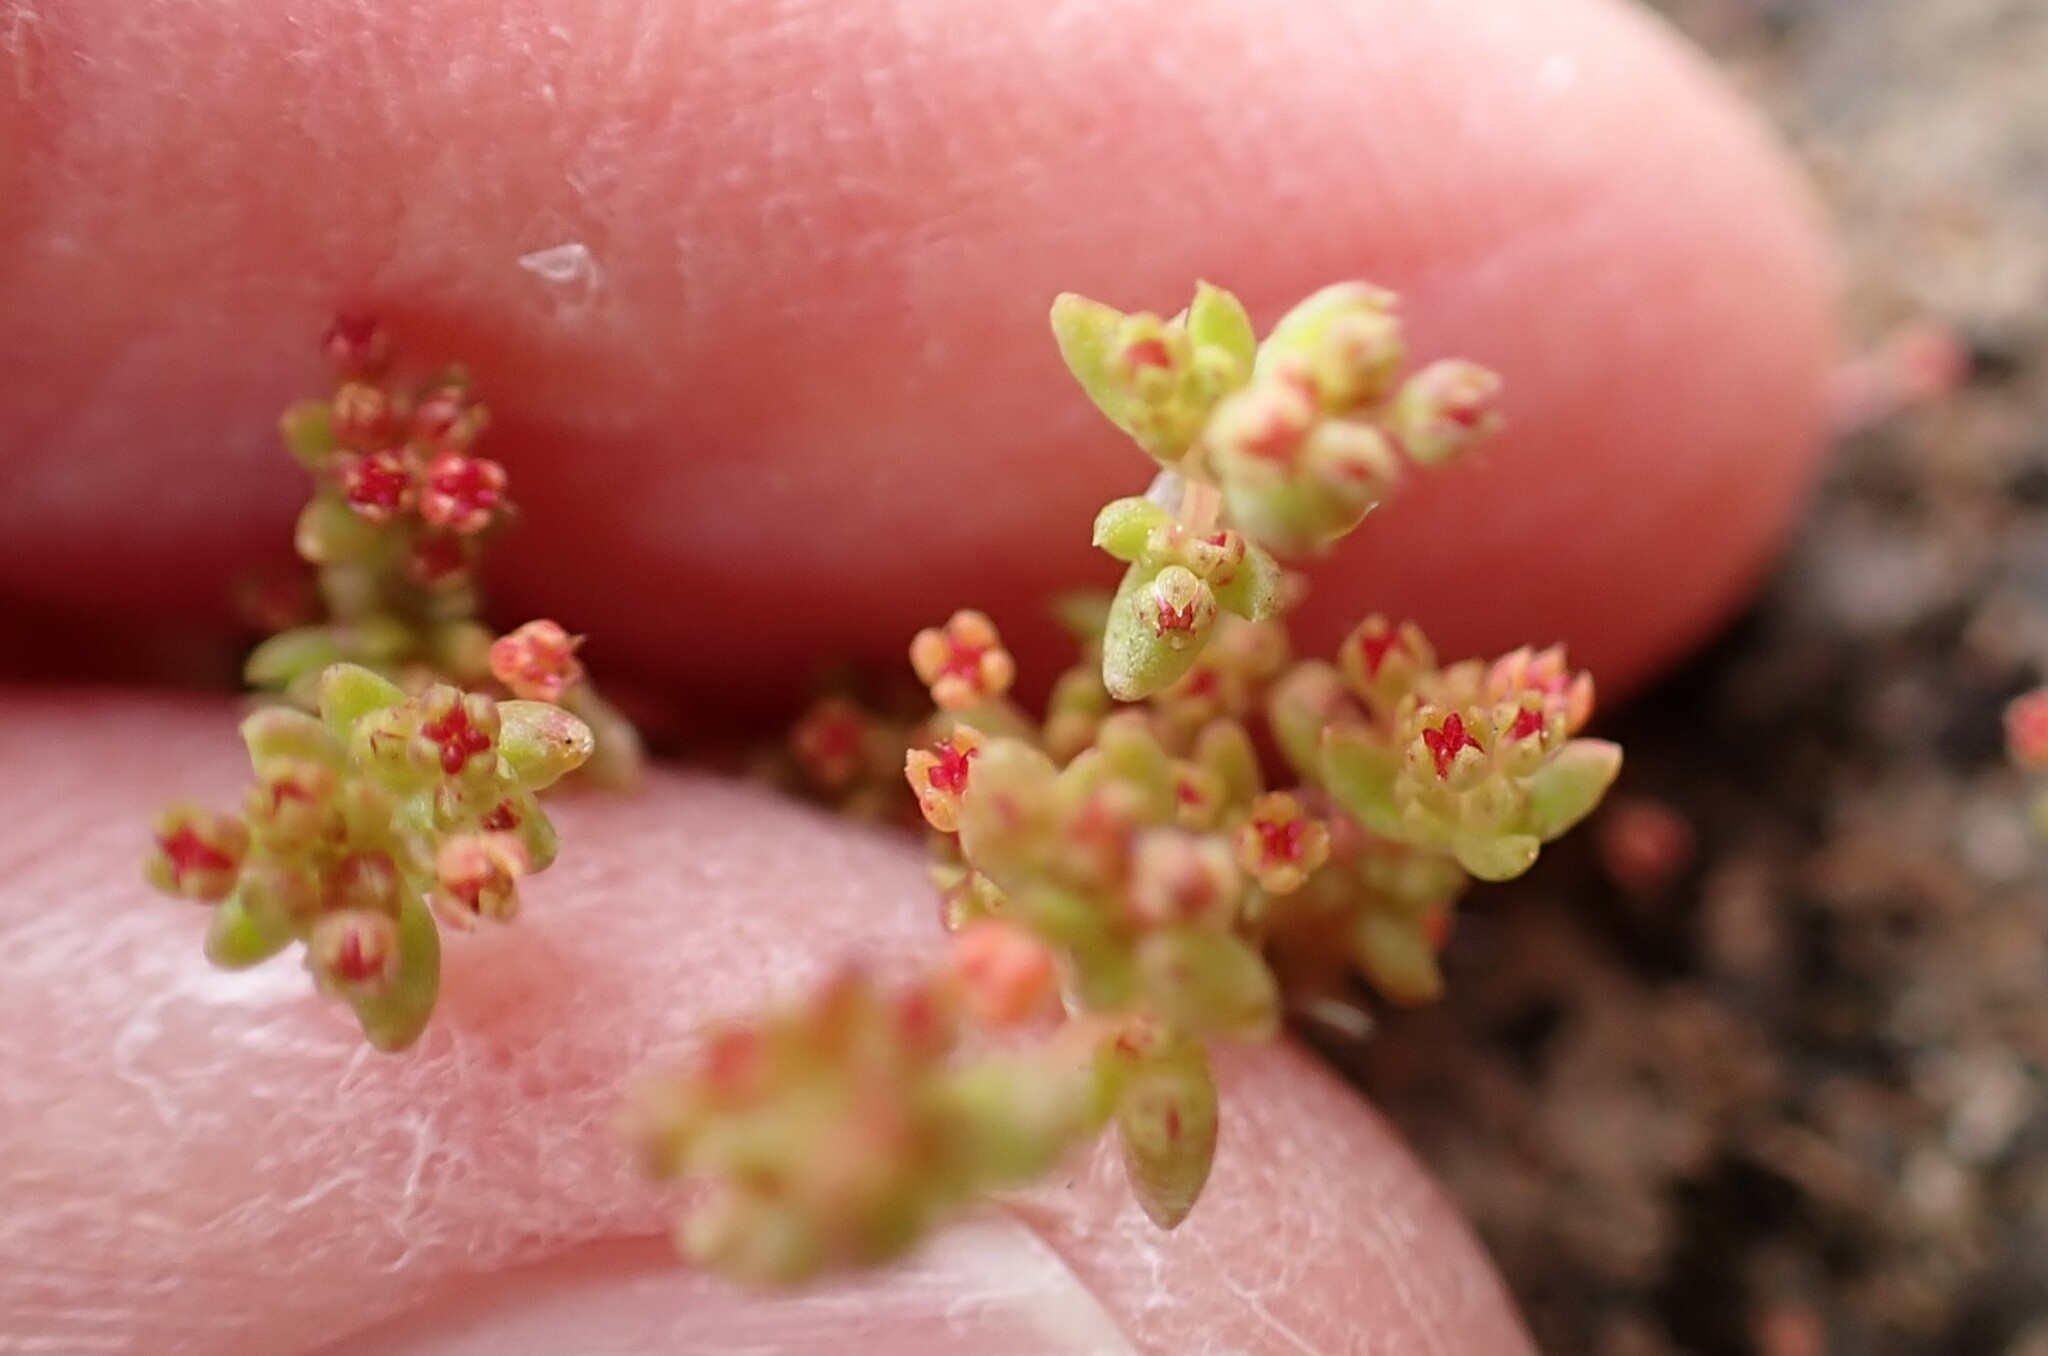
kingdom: Plantae
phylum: Tracheophyta
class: Magnoliopsida
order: Saxifragales
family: Crassulaceae
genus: Crassula
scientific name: Crassula connata
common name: Erect pygmyweed
